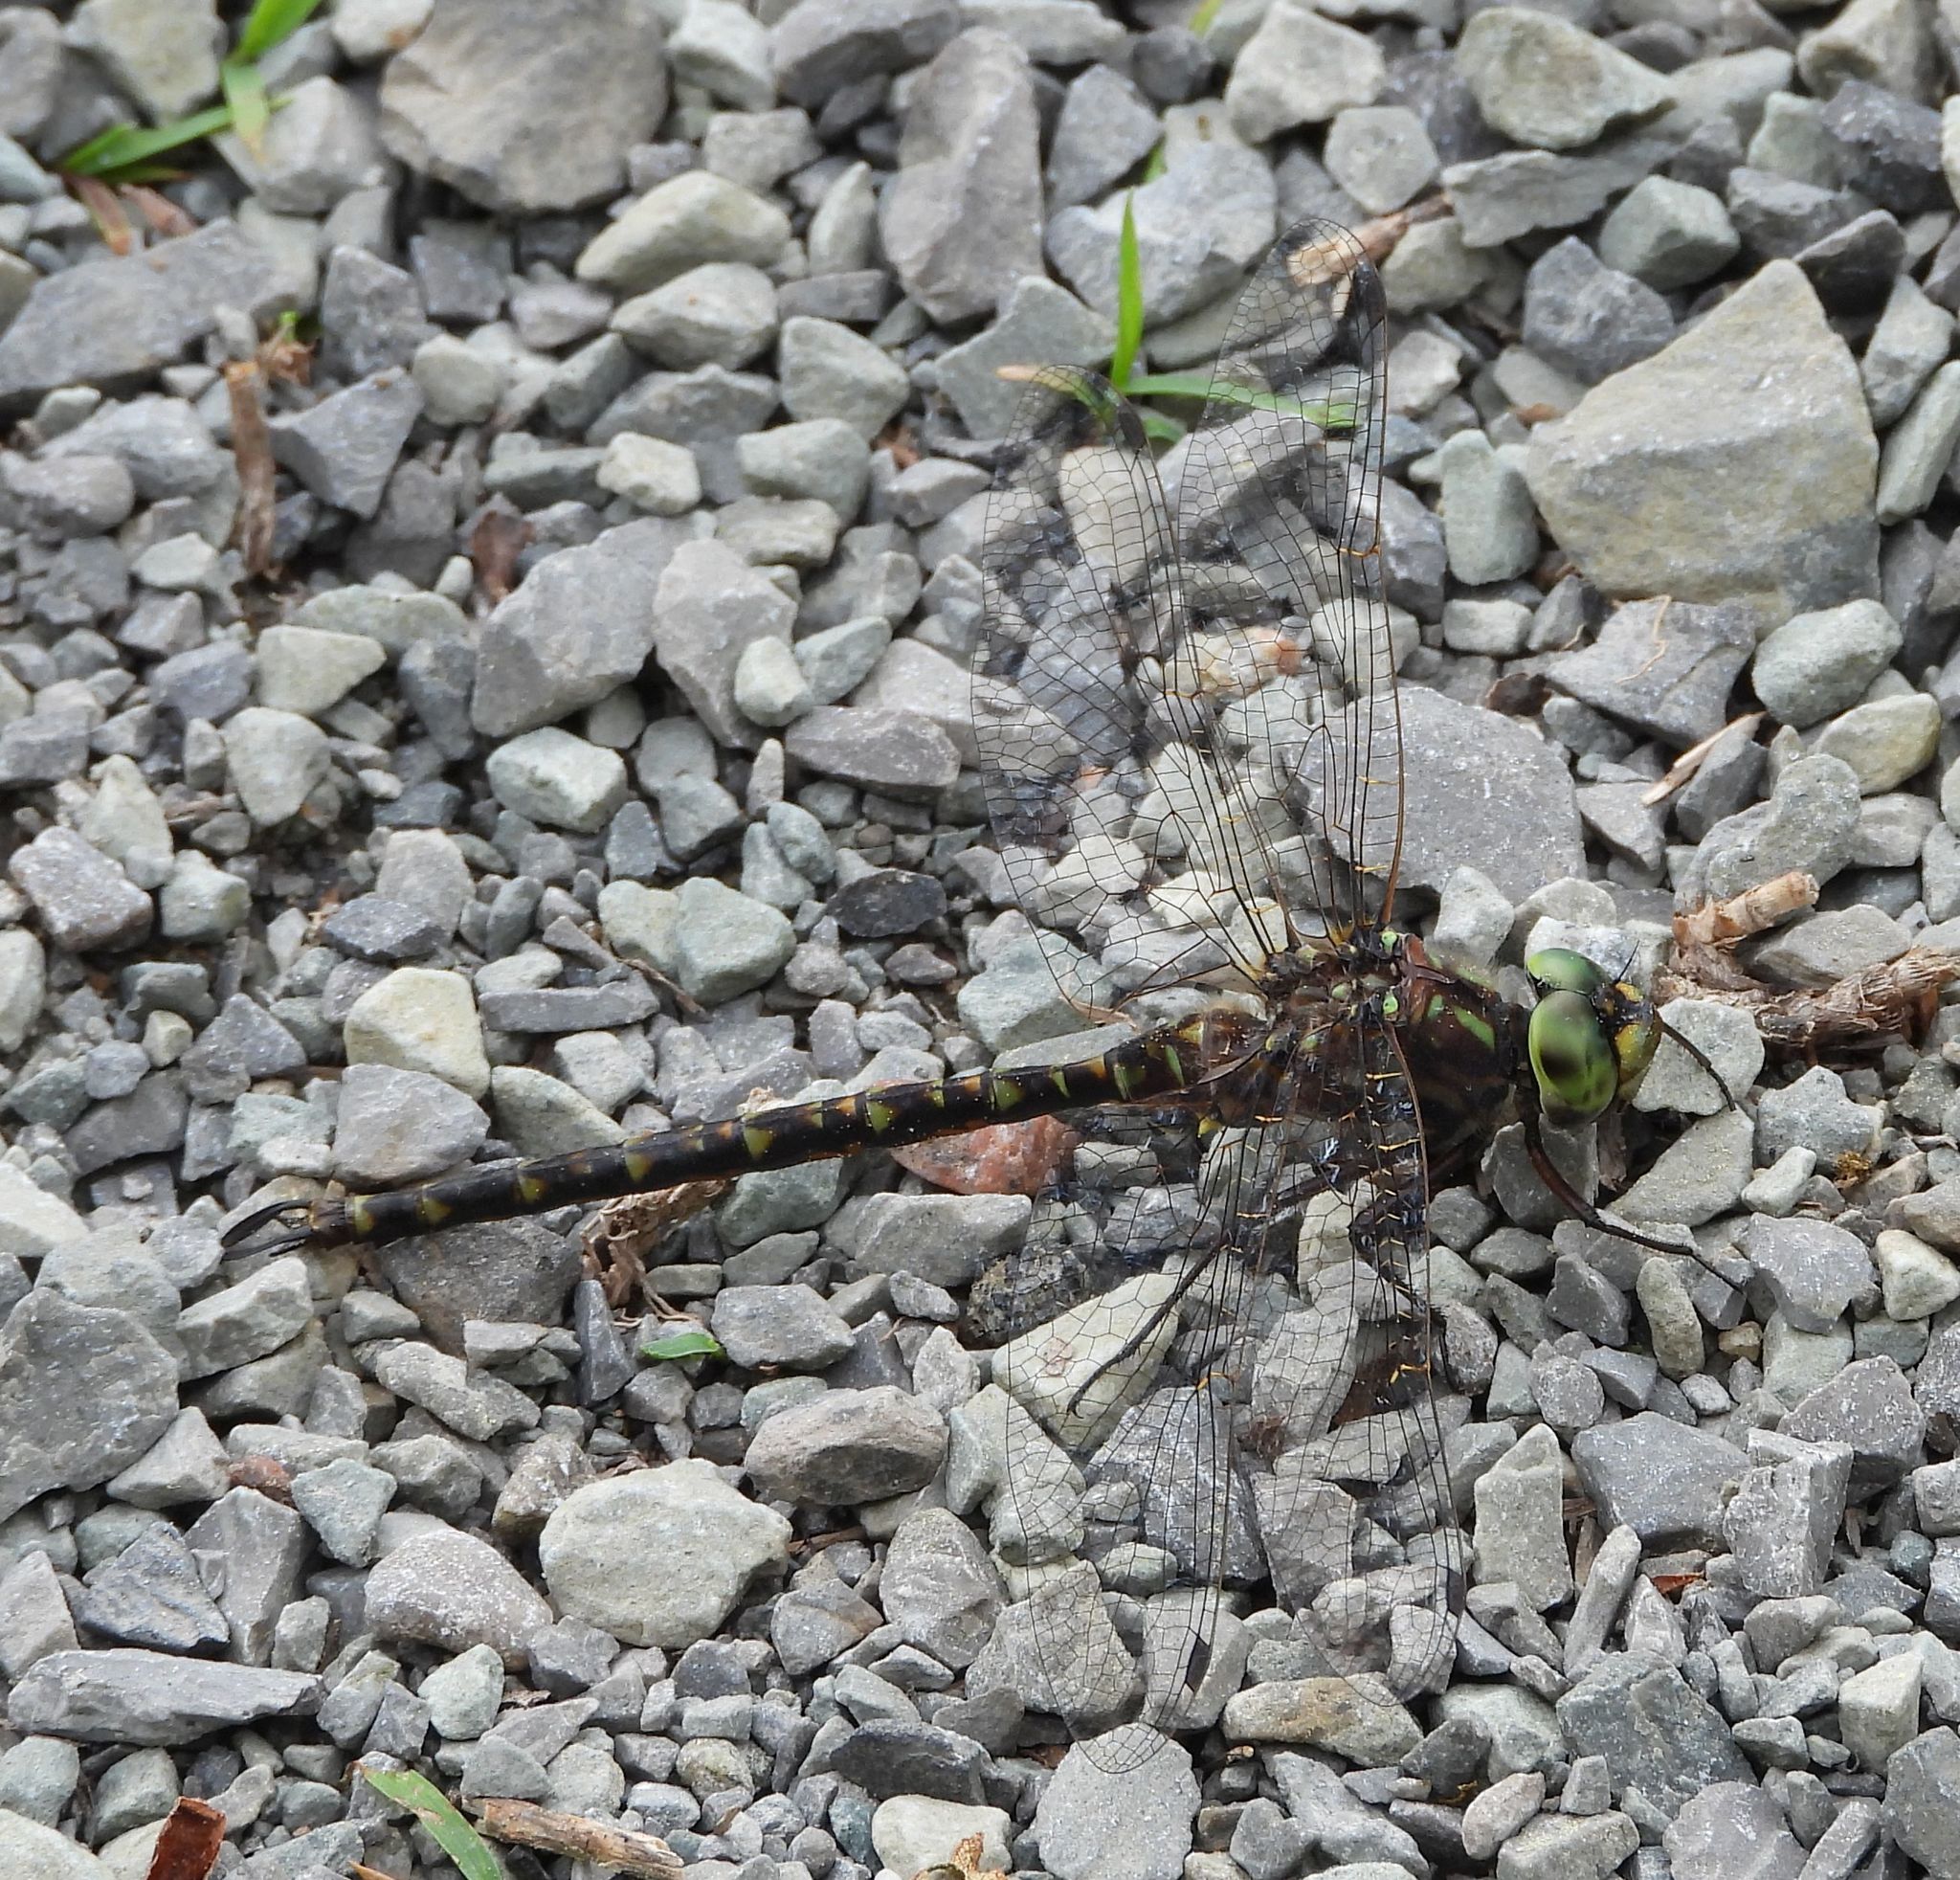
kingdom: Animalia
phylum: Arthropoda
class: Insecta
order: Odonata
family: Aeshnidae
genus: Gomphaeschna
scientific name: Gomphaeschna furcillata
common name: Harlequin darner
